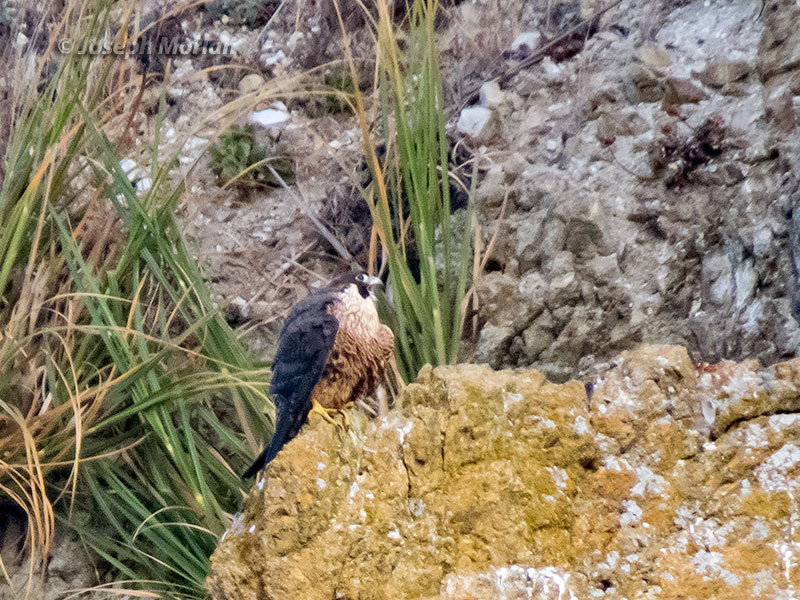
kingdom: Animalia
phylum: Chordata
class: Aves
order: Falconiformes
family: Falconidae
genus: Falco
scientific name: Falco peregrinus
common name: Peregrine falcon
